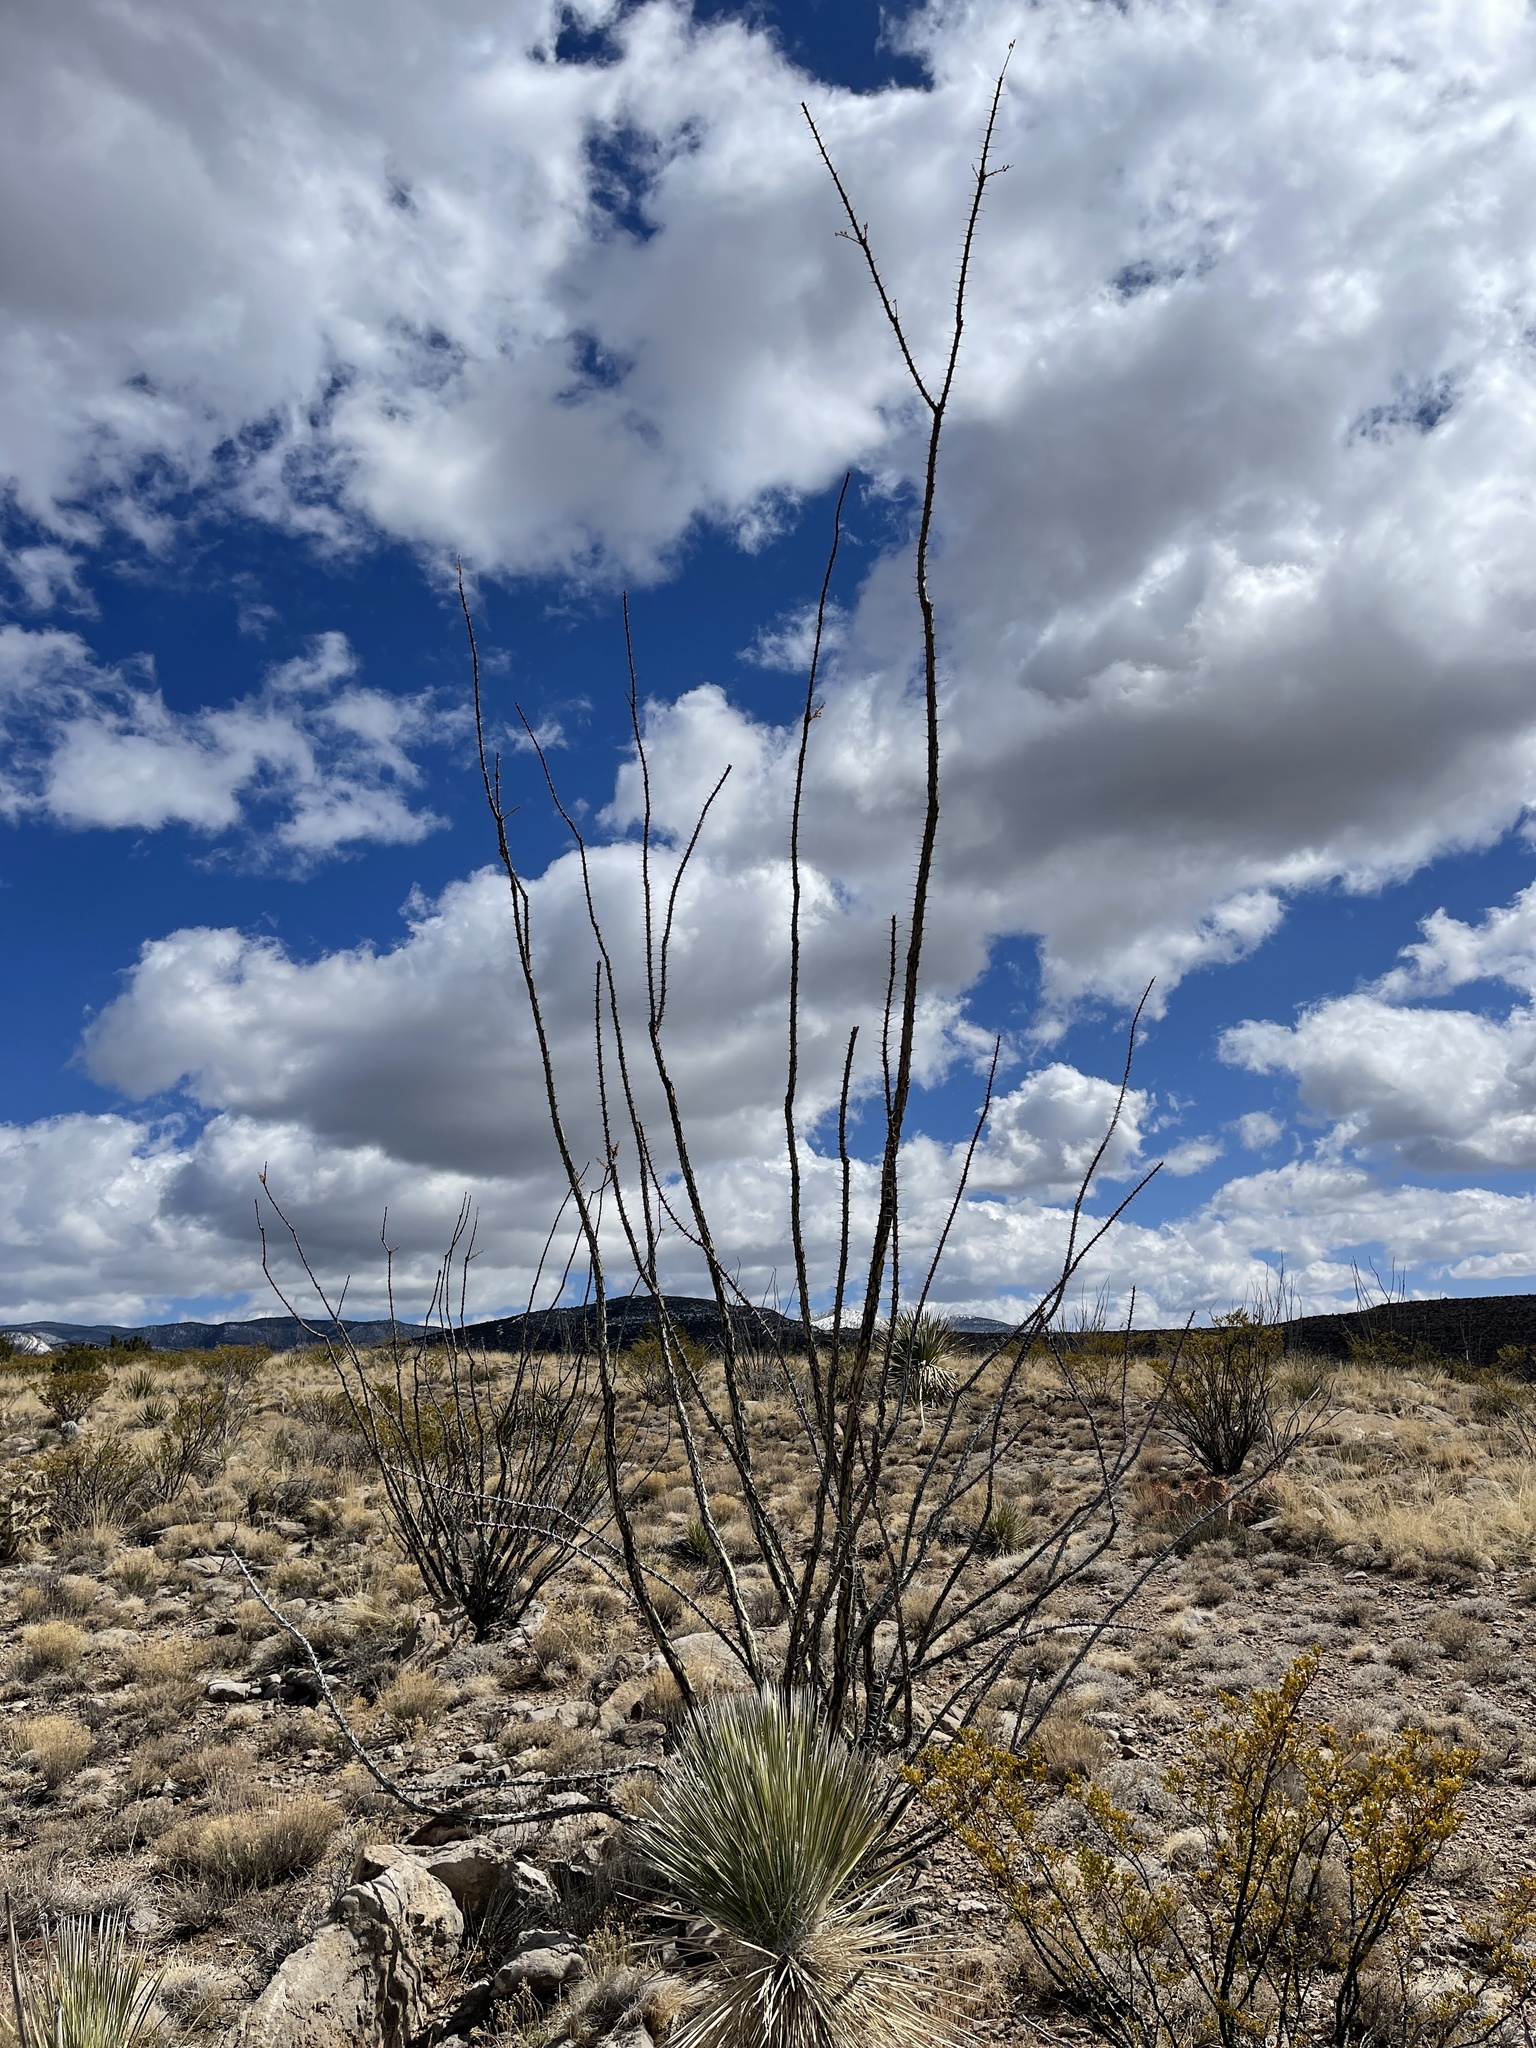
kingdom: Plantae
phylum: Tracheophyta
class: Magnoliopsida
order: Ericales
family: Fouquieriaceae
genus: Fouquieria
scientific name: Fouquieria splendens
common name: Vine-cactus
